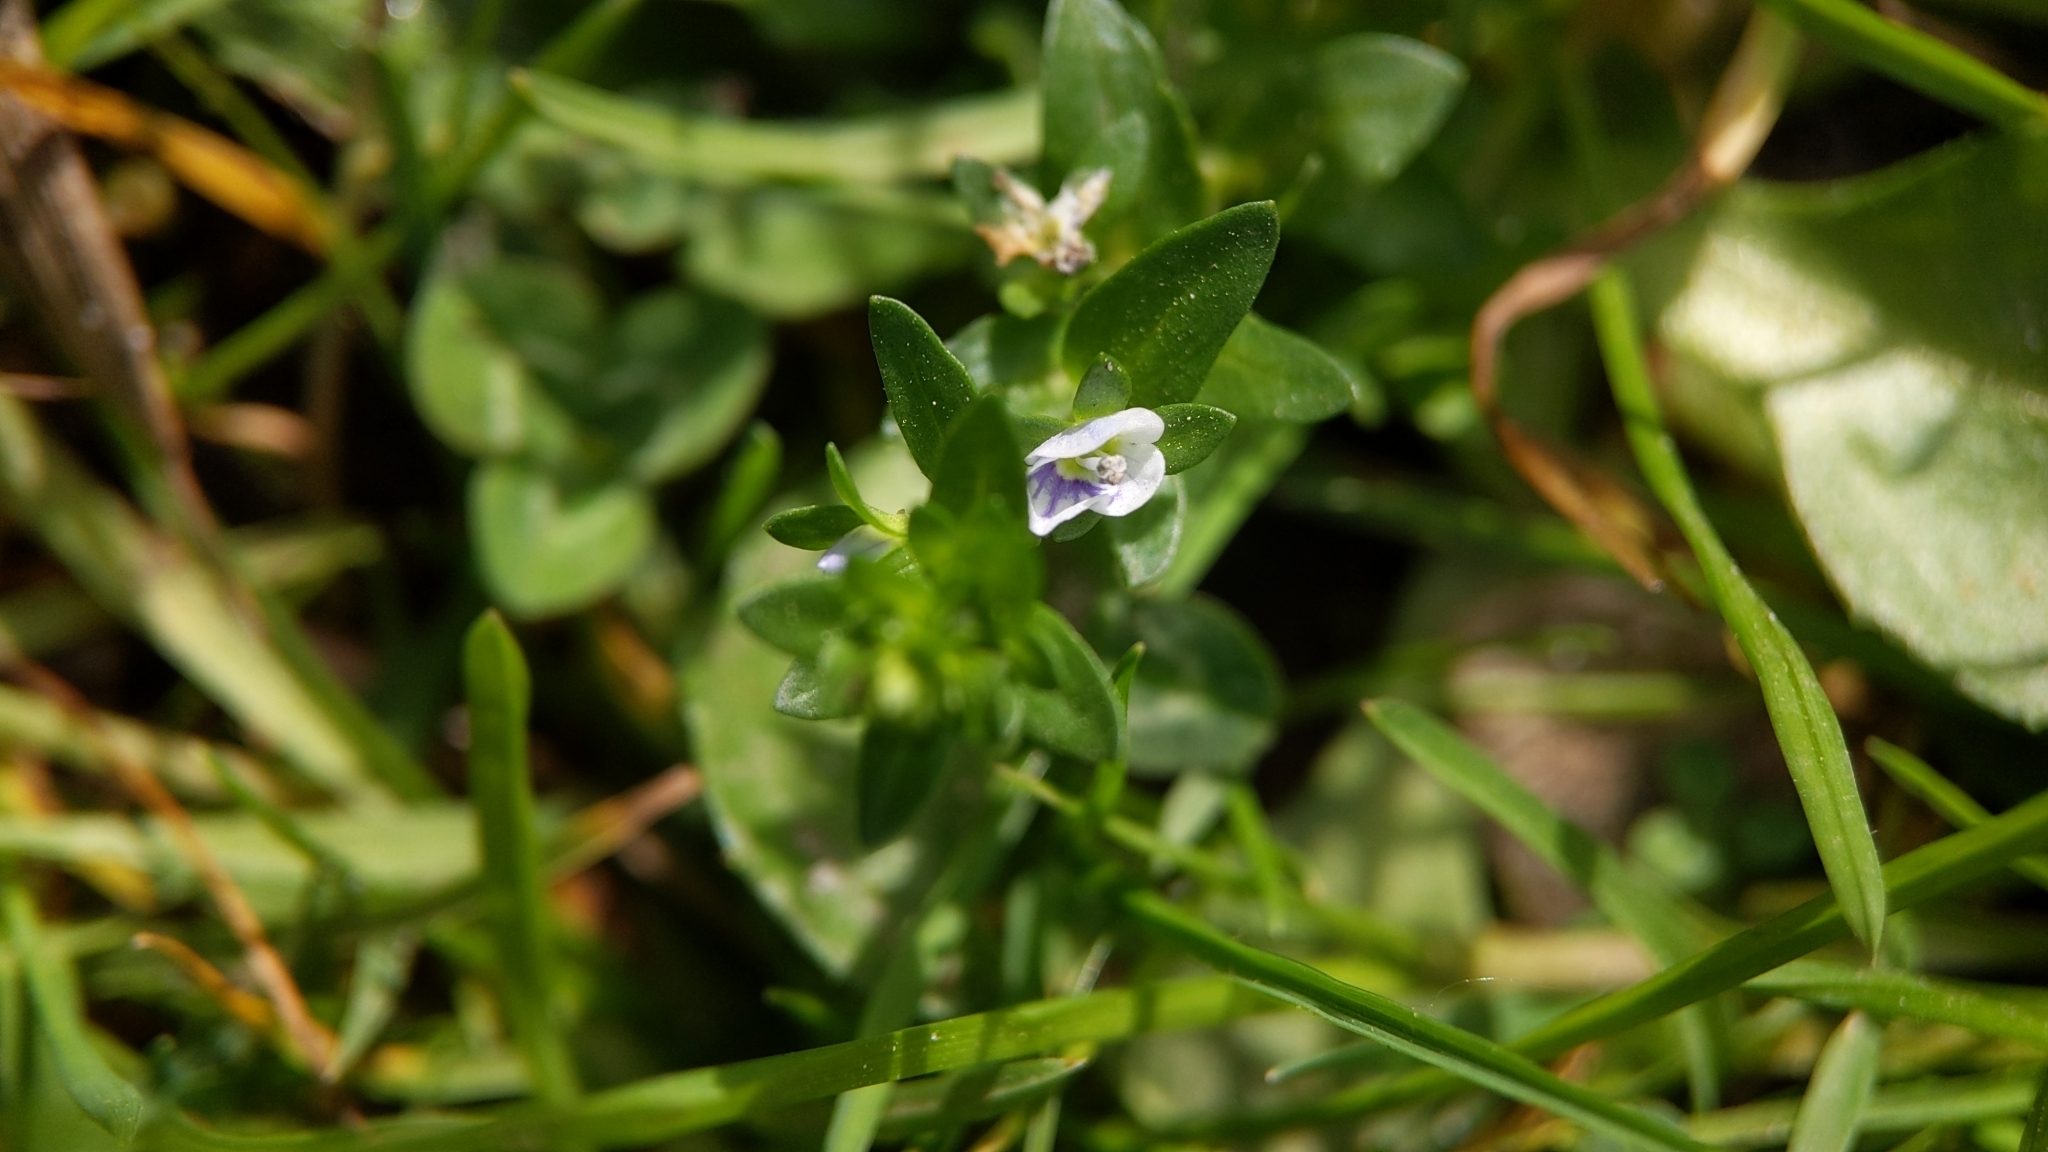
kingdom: Plantae
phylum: Tracheophyta
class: Magnoliopsida
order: Lamiales
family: Plantaginaceae
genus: Veronica
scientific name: Veronica serpyllifolia
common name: Thyme-leaved speedwell
